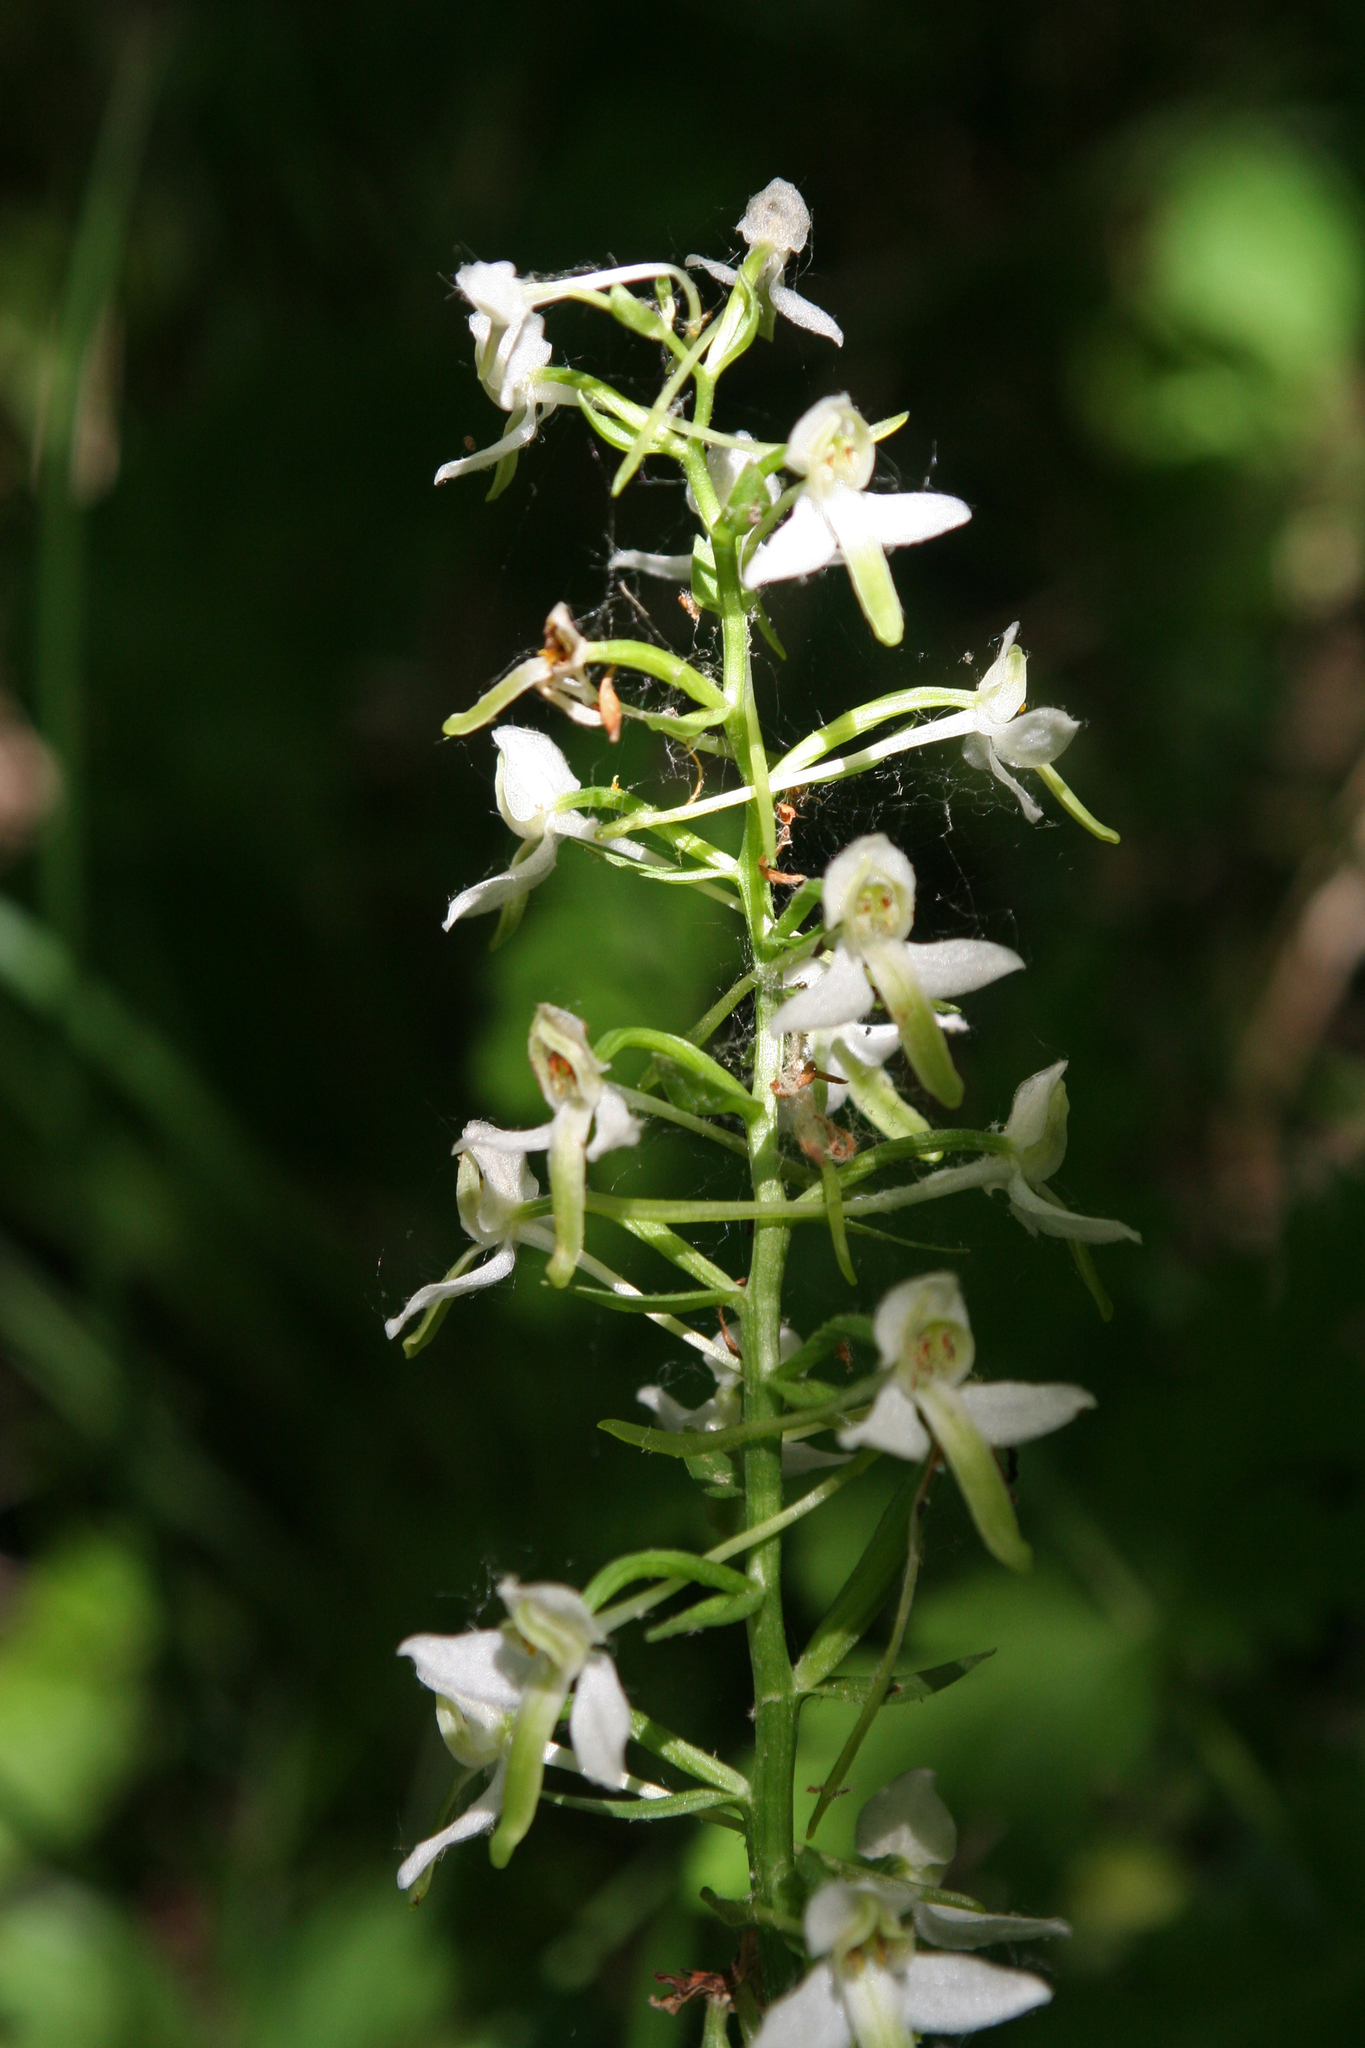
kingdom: Plantae
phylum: Tracheophyta
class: Liliopsida
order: Asparagales
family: Orchidaceae
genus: Platanthera
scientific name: Platanthera bifolia
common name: Lesser butterfly-orchid
